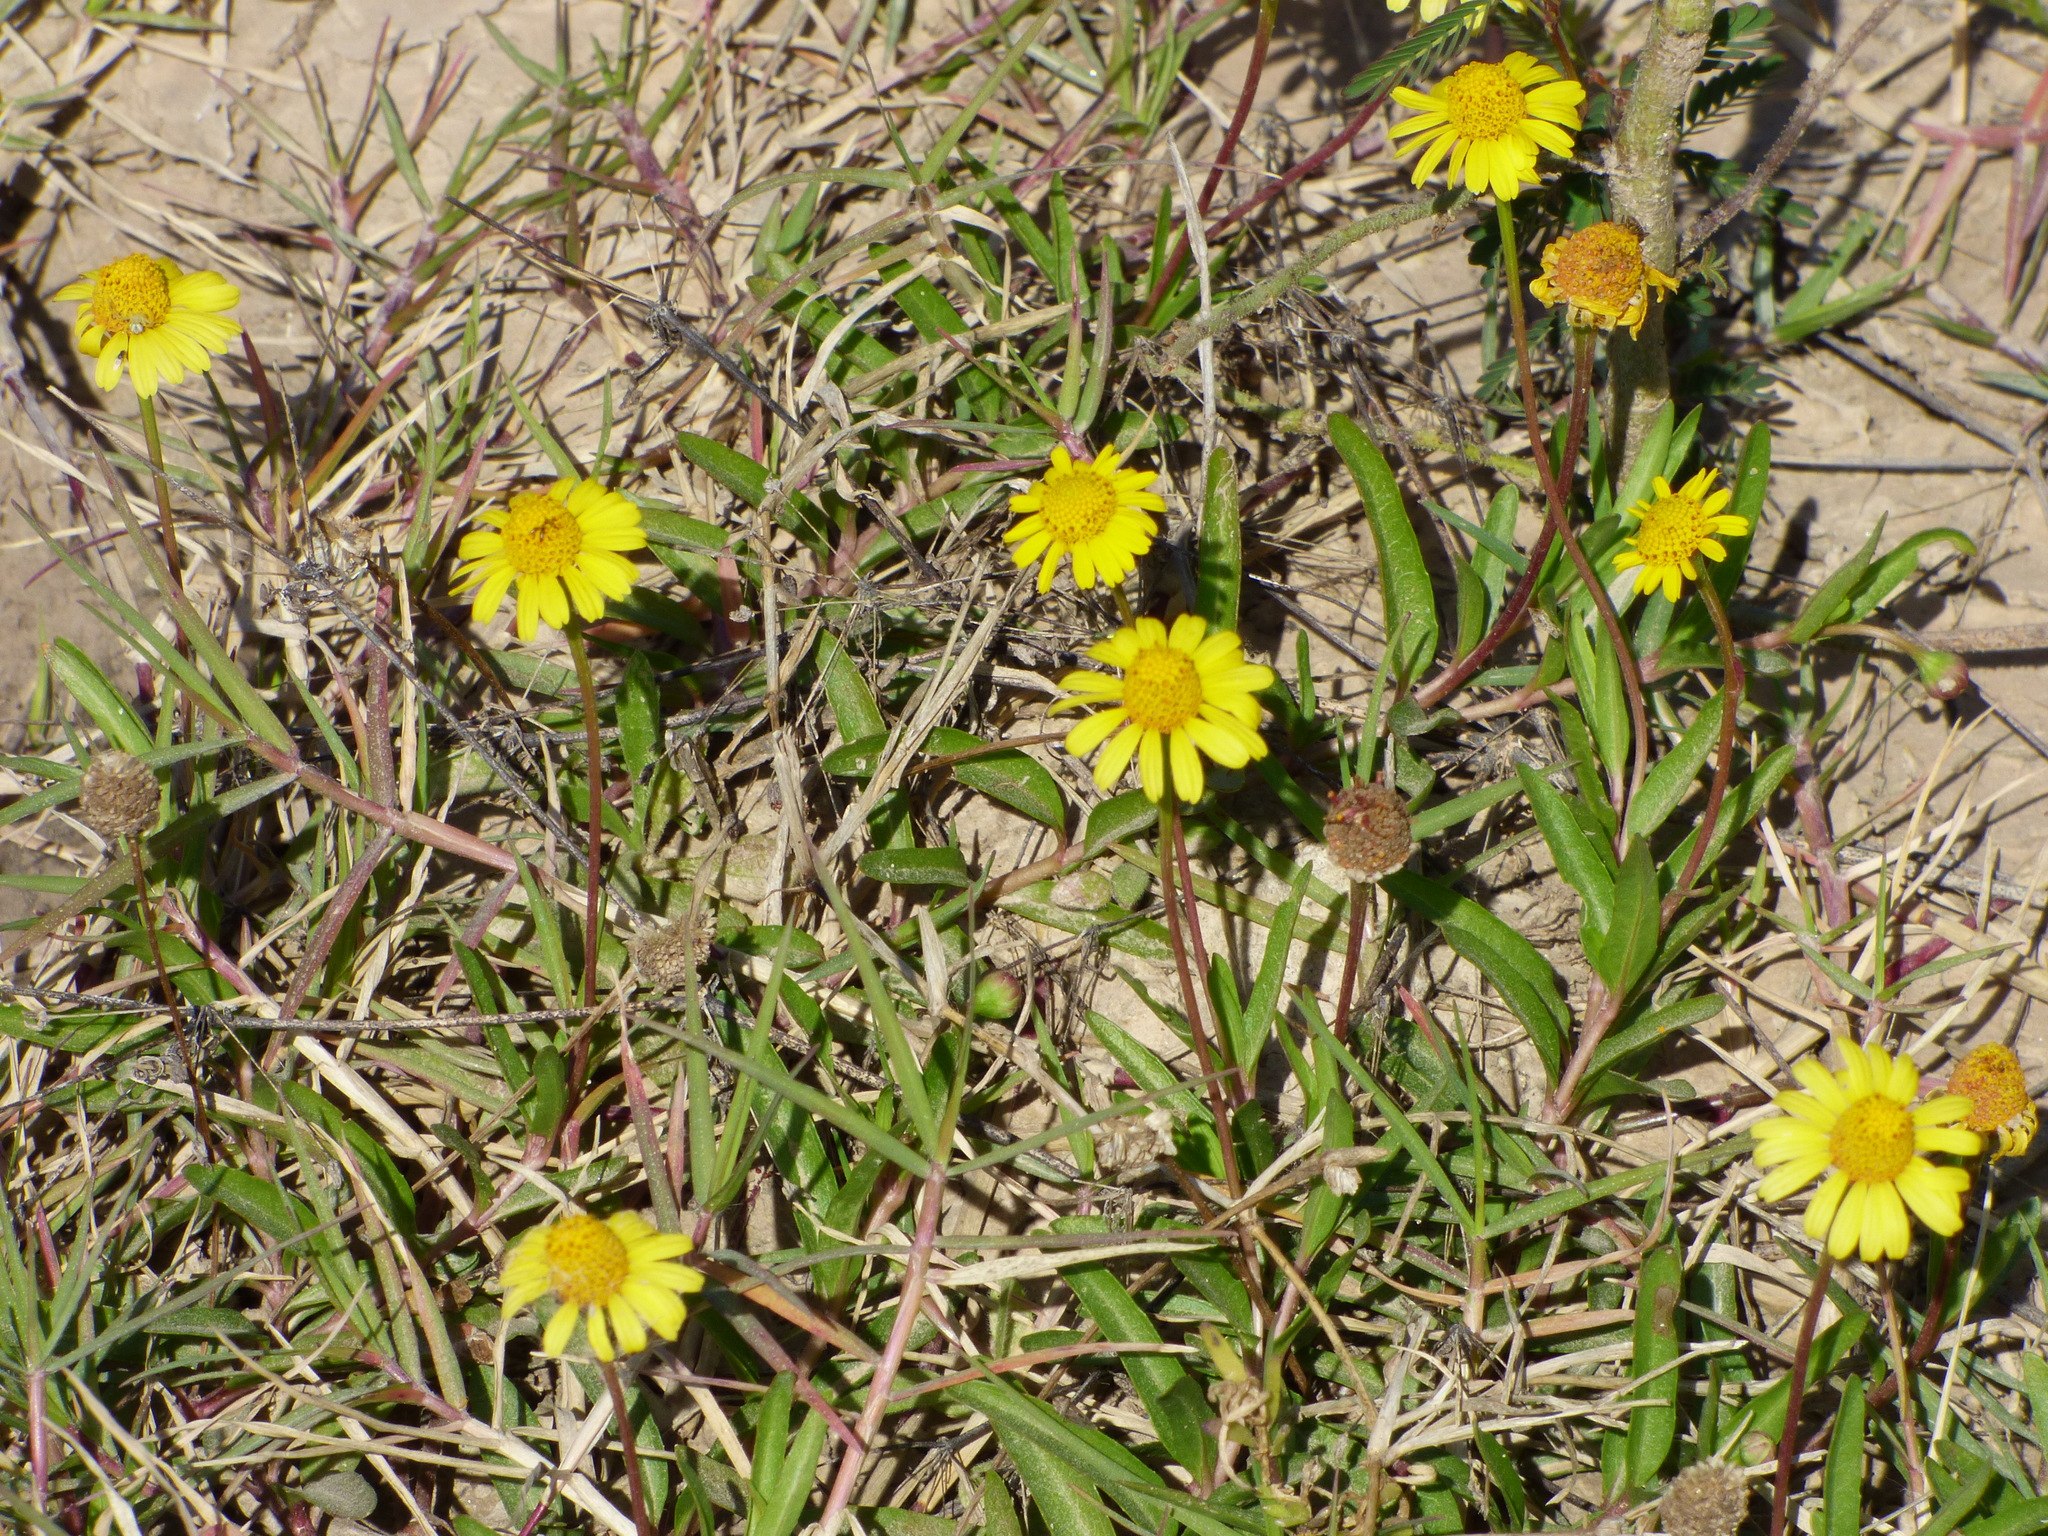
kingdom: Plantae
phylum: Tracheophyta
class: Magnoliopsida
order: Asterales
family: Asteraceae
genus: Acmella
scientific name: Acmella pusilla
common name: Dwarf spotflower
